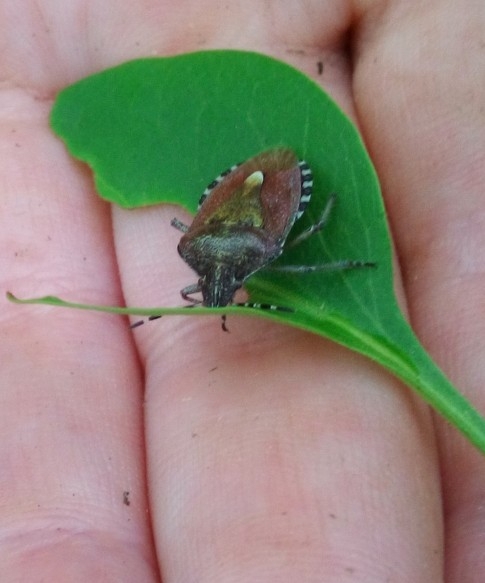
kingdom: Animalia
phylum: Arthropoda
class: Insecta
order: Hemiptera
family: Pentatomidae
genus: Dolycoris
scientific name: Dolycoris baccarum
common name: Sloe bug
